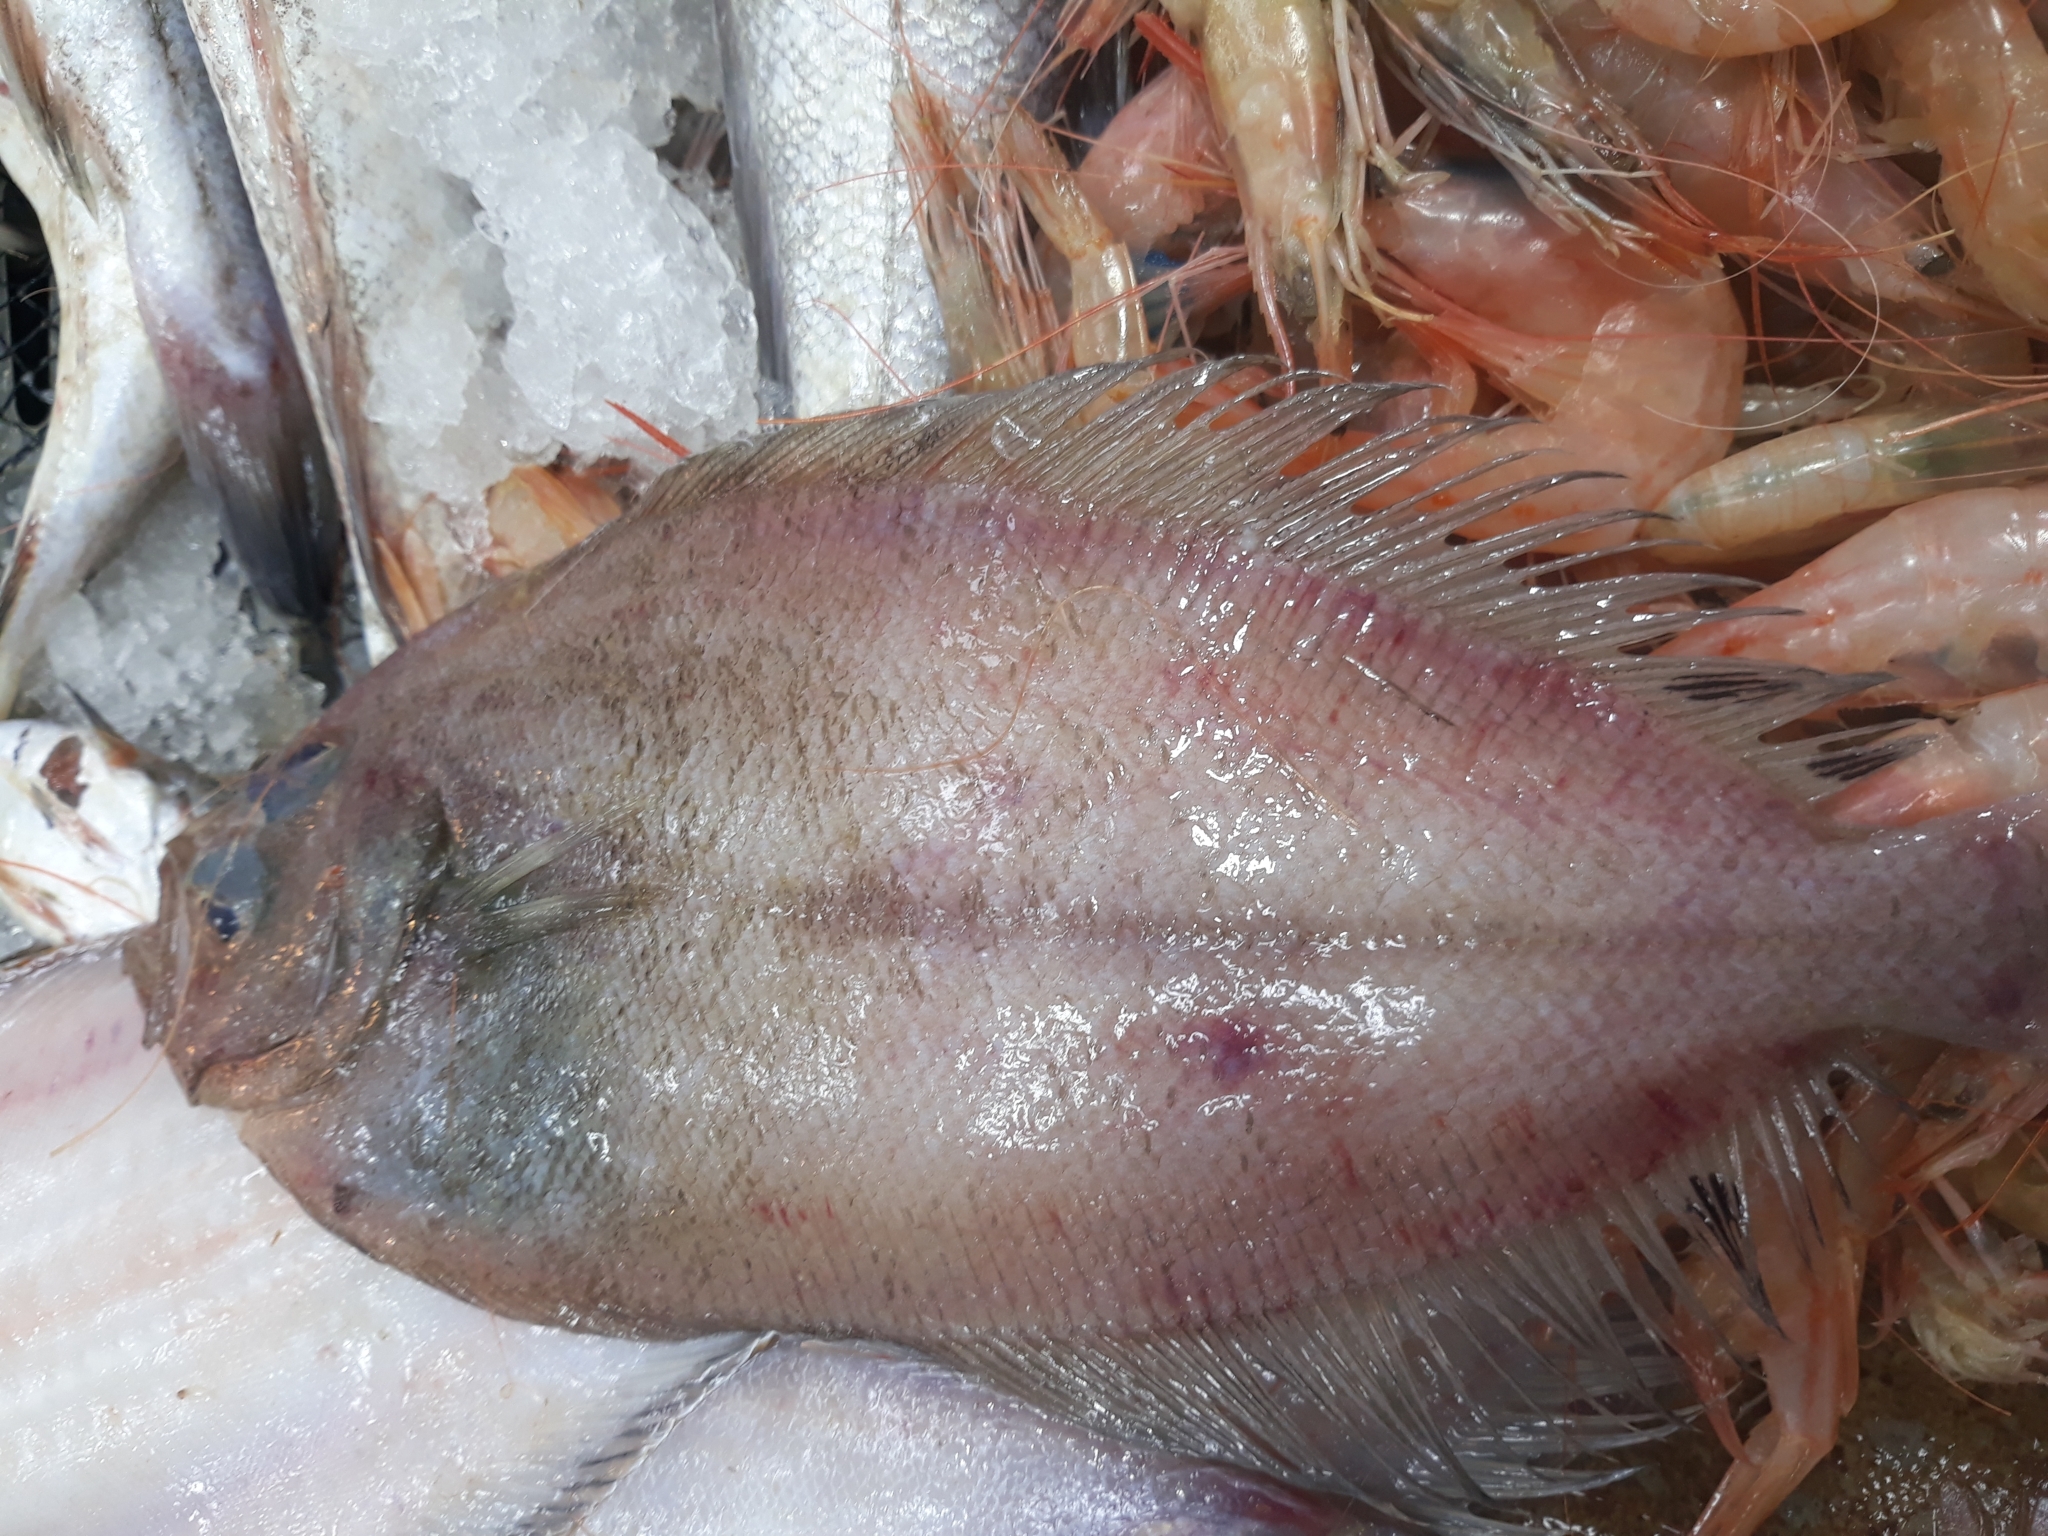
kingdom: Animalia
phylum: Chordata
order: Pleuronectiformes
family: Scophthalmidae
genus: Lepidorhombus
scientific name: Lepidorhombus boscii
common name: Megrim
